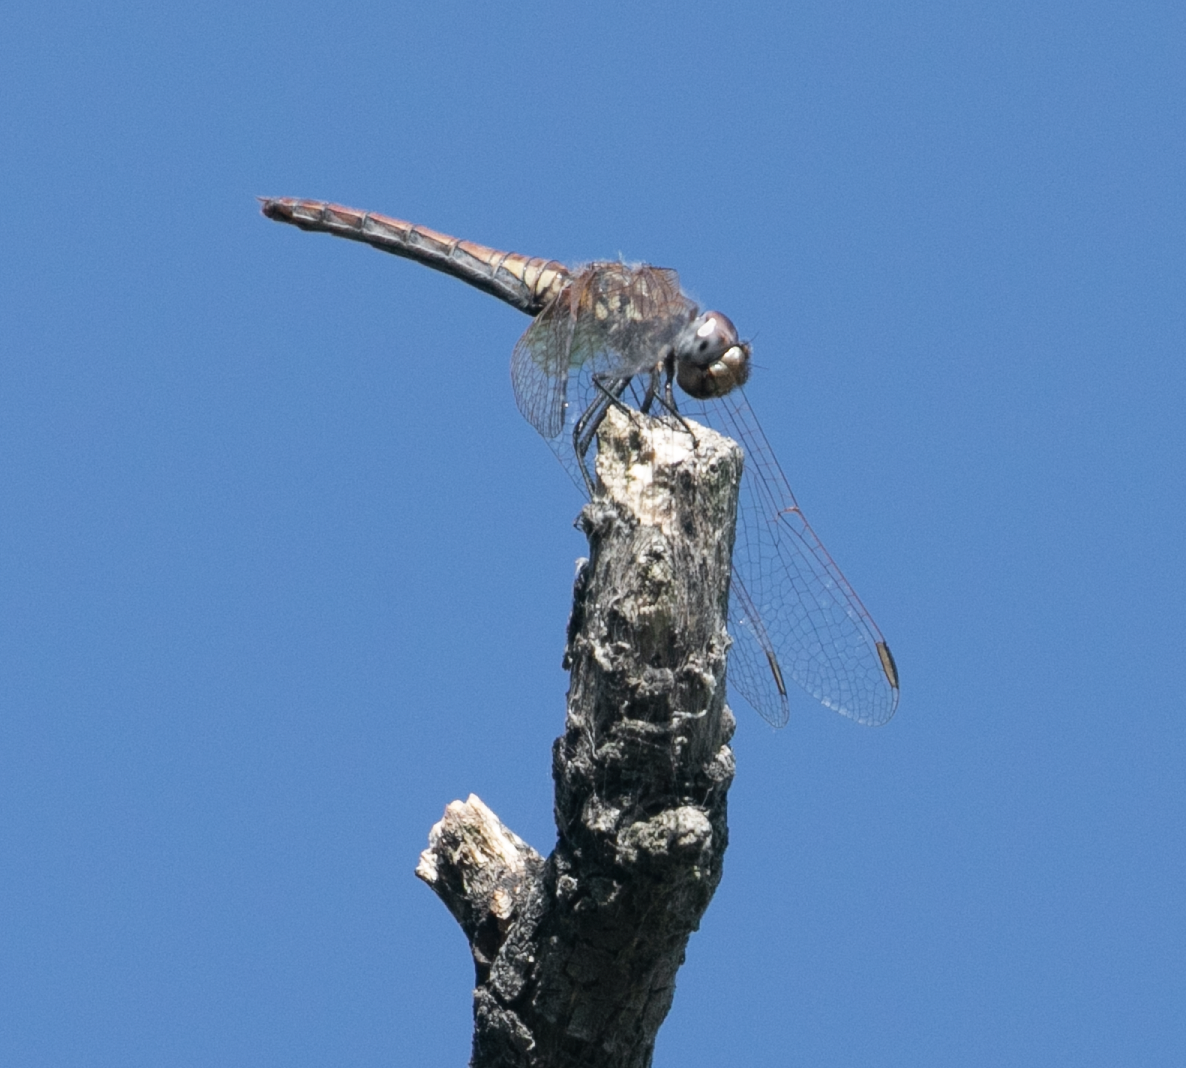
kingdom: Animalia
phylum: Arthropoda
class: Insecta
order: Odonata
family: Libellulidae
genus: Trithemis
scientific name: Trithemis annulata
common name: Violet dropwing
